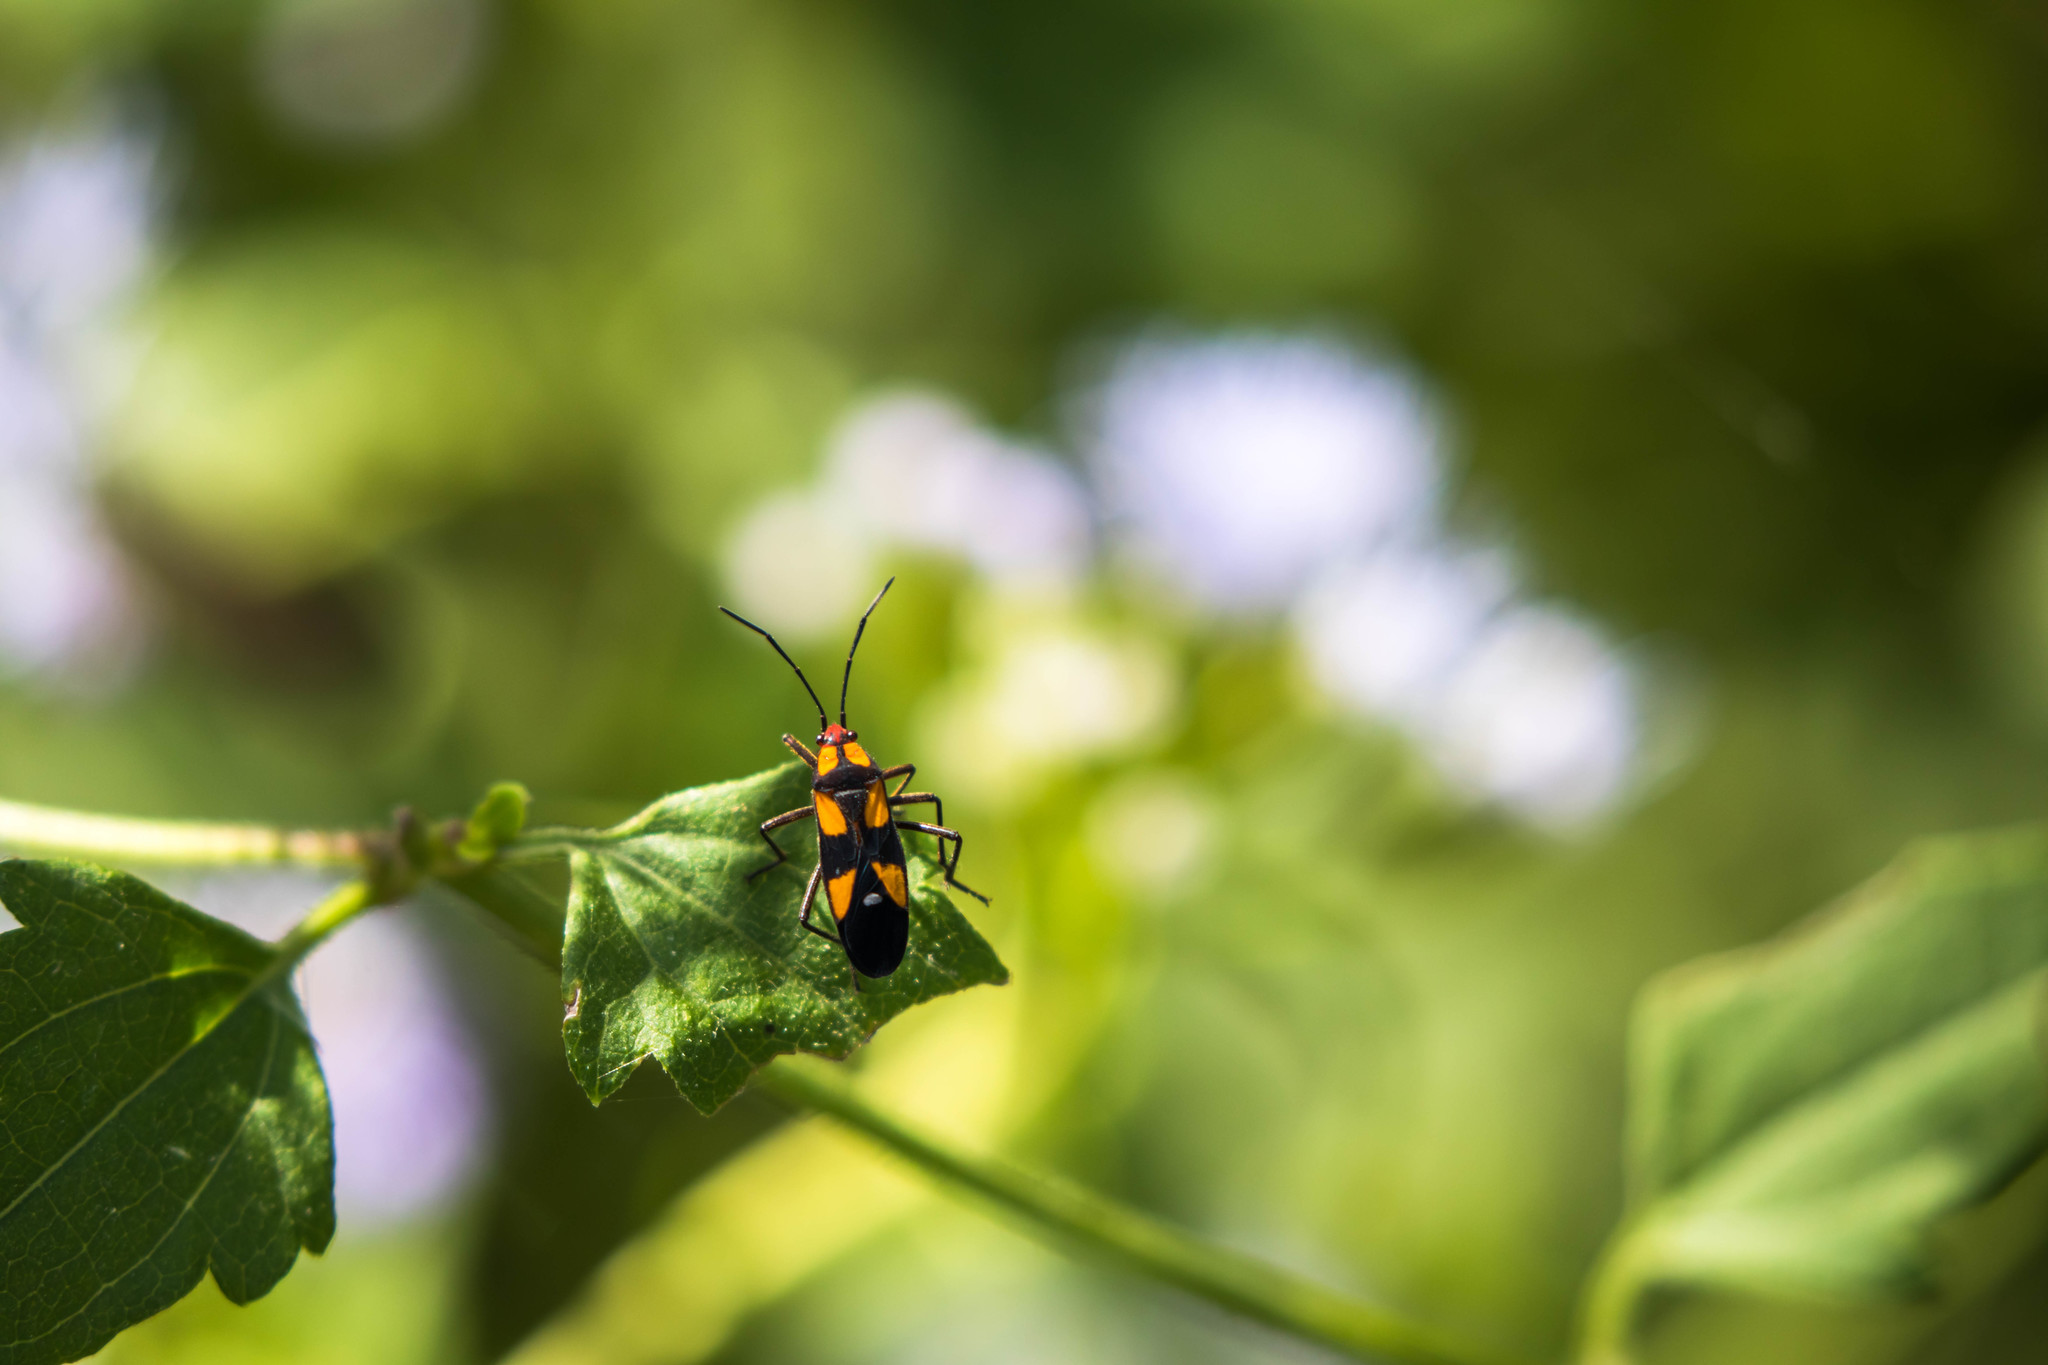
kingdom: Animalia
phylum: Arthropoda
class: Insecta
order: Hemiptera
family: Lygaeidae
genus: Oncopeltus
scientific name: Oncopeltus sexmaculatus
